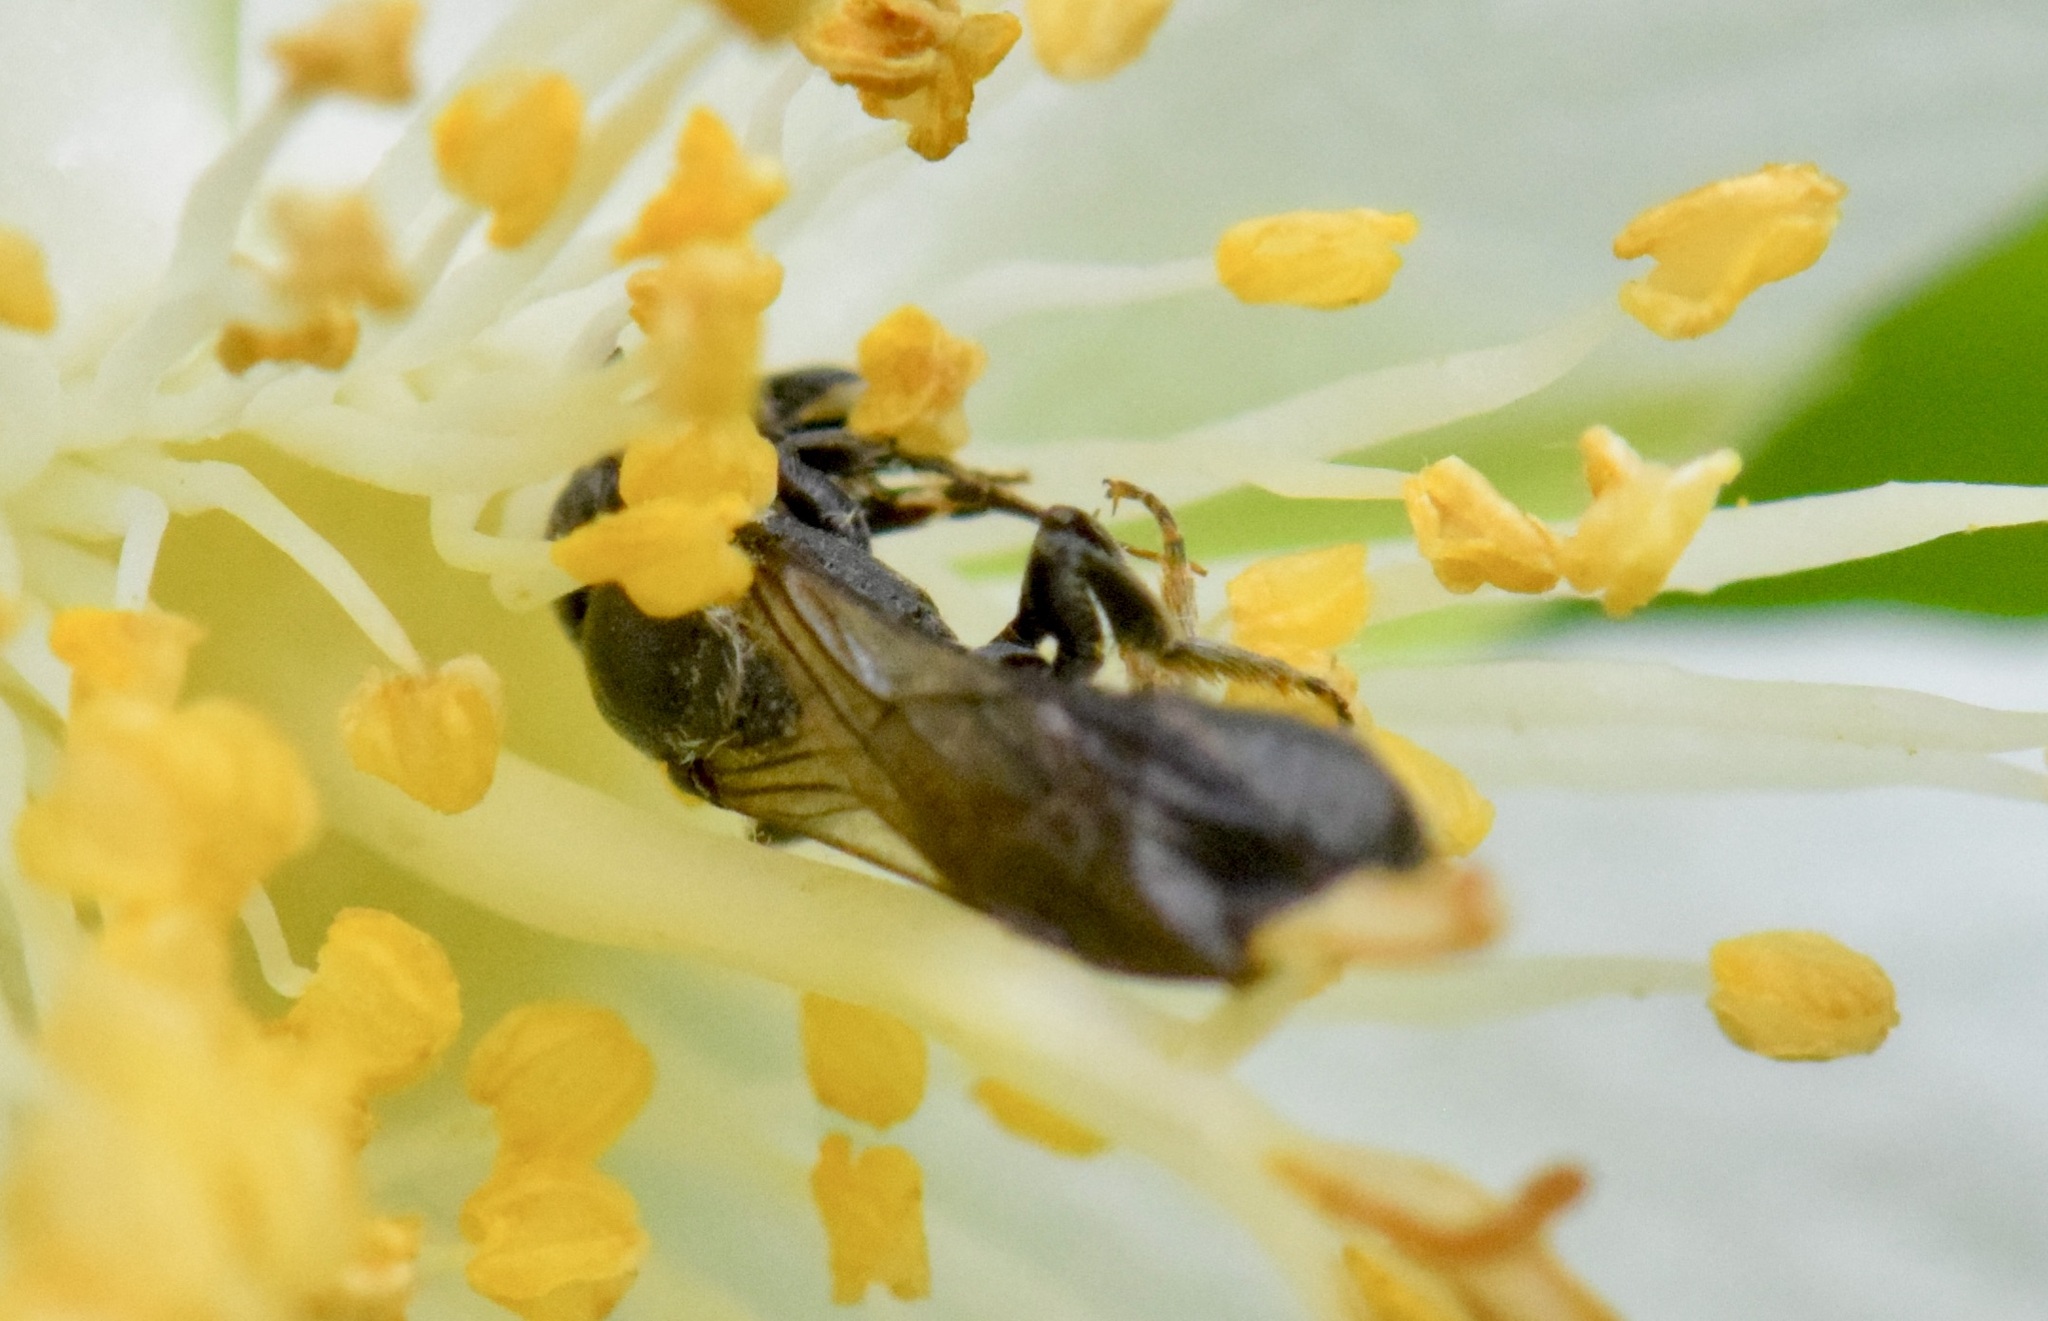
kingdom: Animalia
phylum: Arthropoda
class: Insecta
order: Hymenoptera
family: Megachilidae
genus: Chelostoma
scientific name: Chelostoma philadelphi
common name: Mock-orange scissor bee
